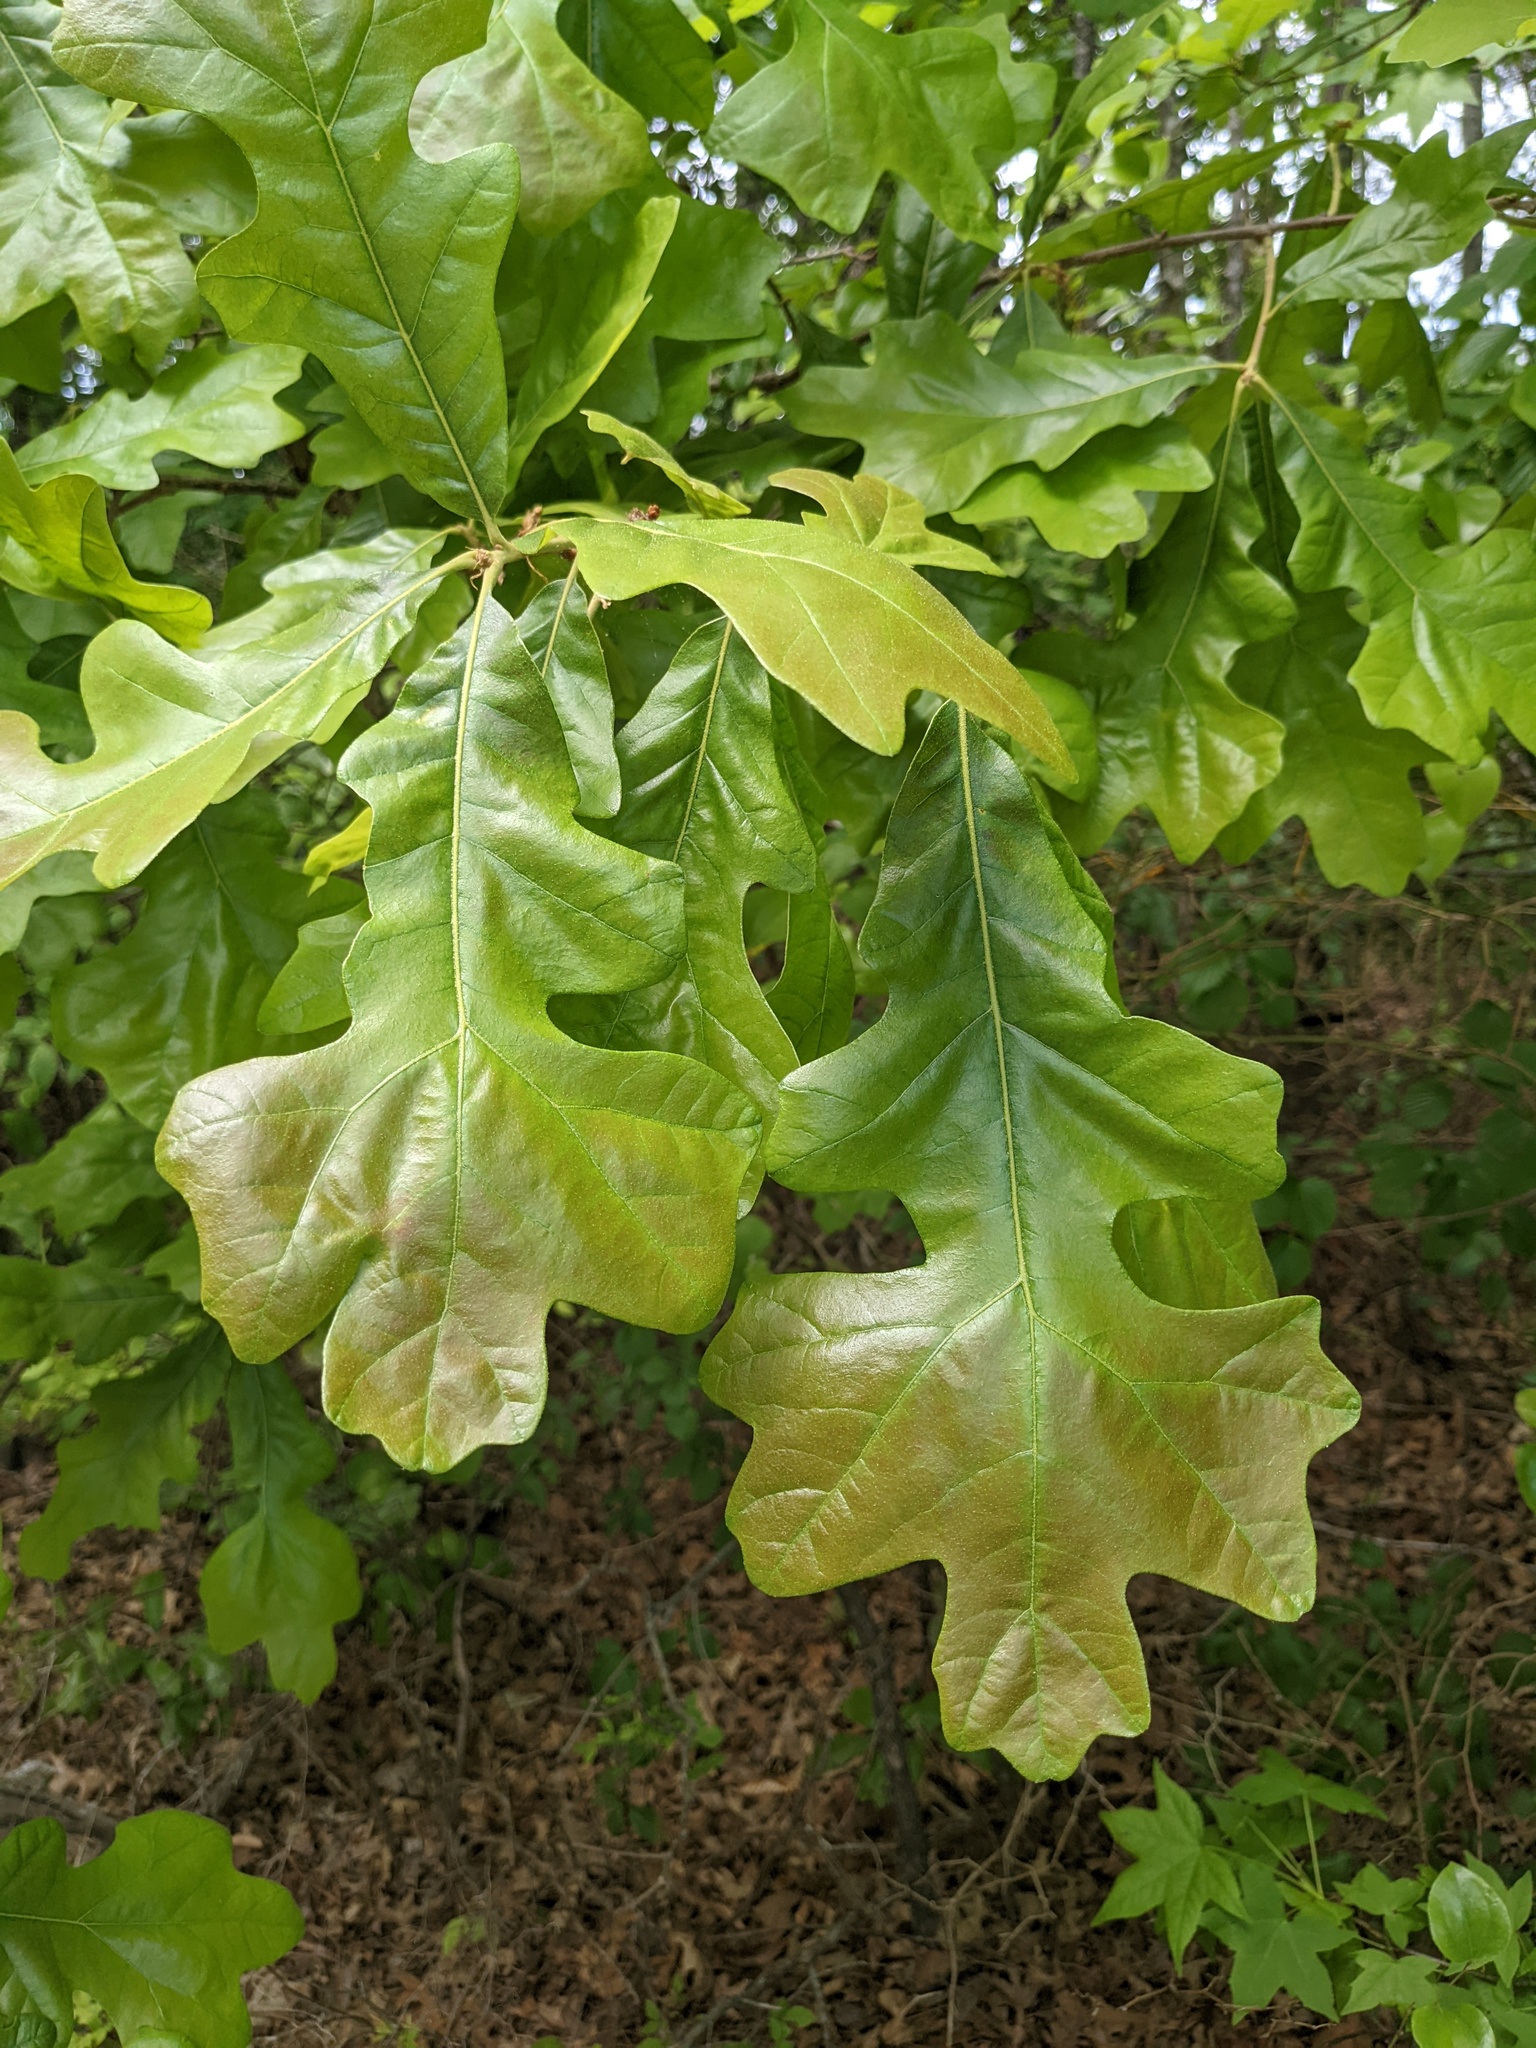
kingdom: Plantae
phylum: Tracheophyta
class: Magnoliopsida
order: Fagales
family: Fagaceae
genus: Quercus
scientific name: Quercus stellata
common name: Post oak
